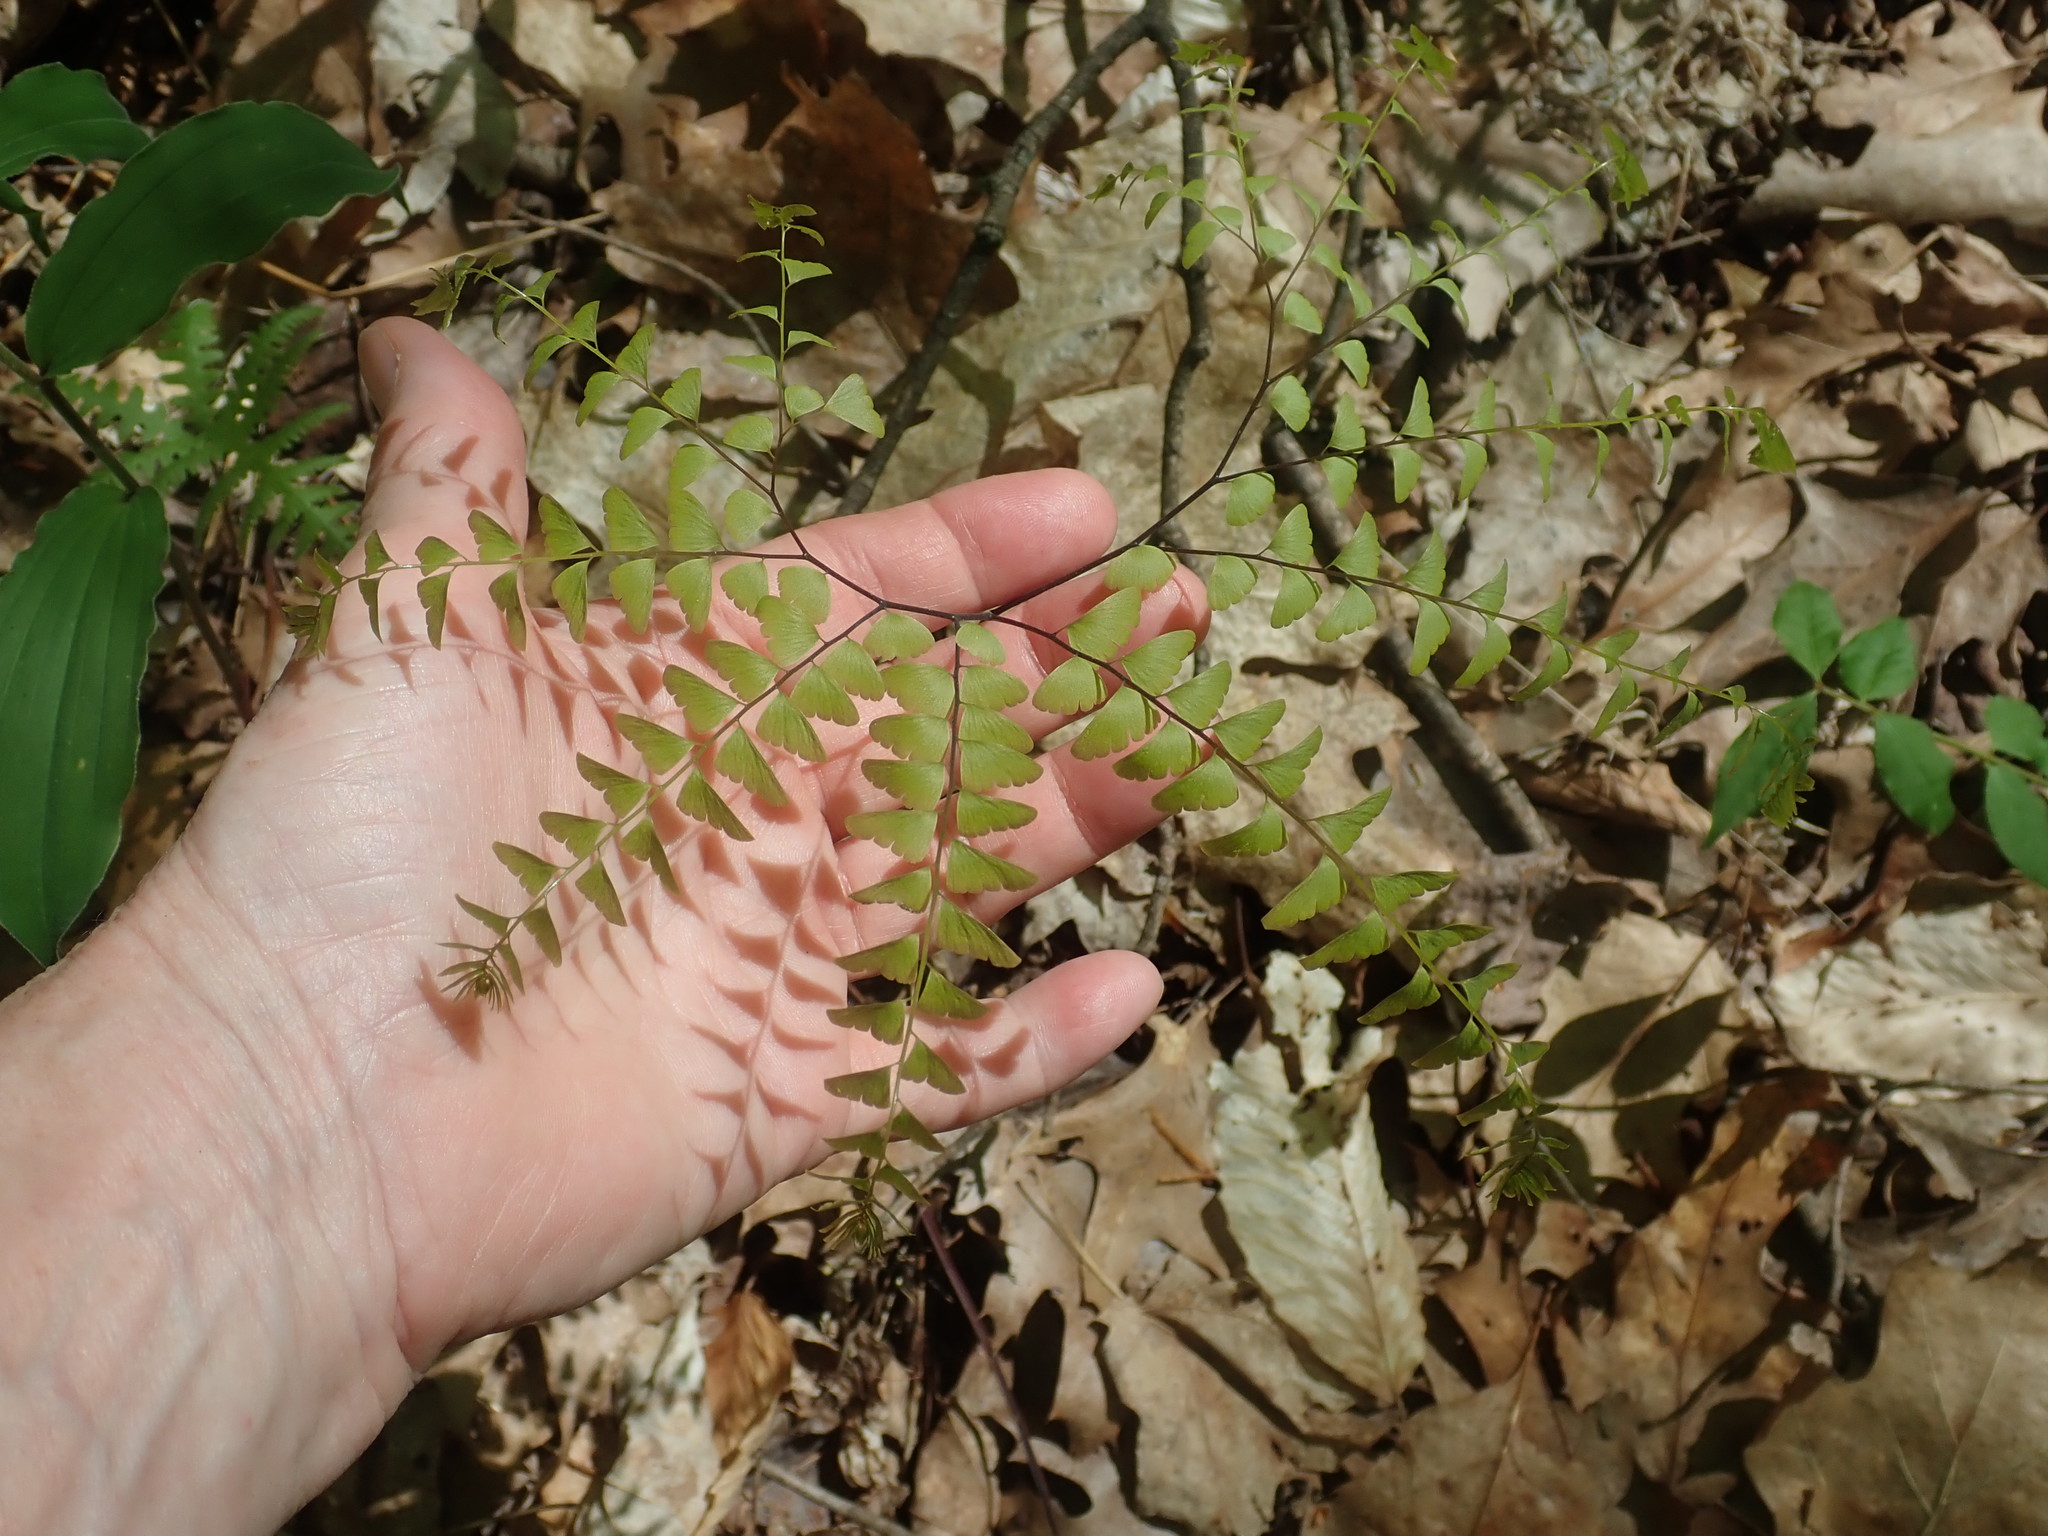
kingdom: Plantae
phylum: Tracheophyta
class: Polypodiopsida
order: Polypodiales
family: Pteridaceae
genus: Adiantum
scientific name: Adiantum pedatum
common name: Five-finger fern
